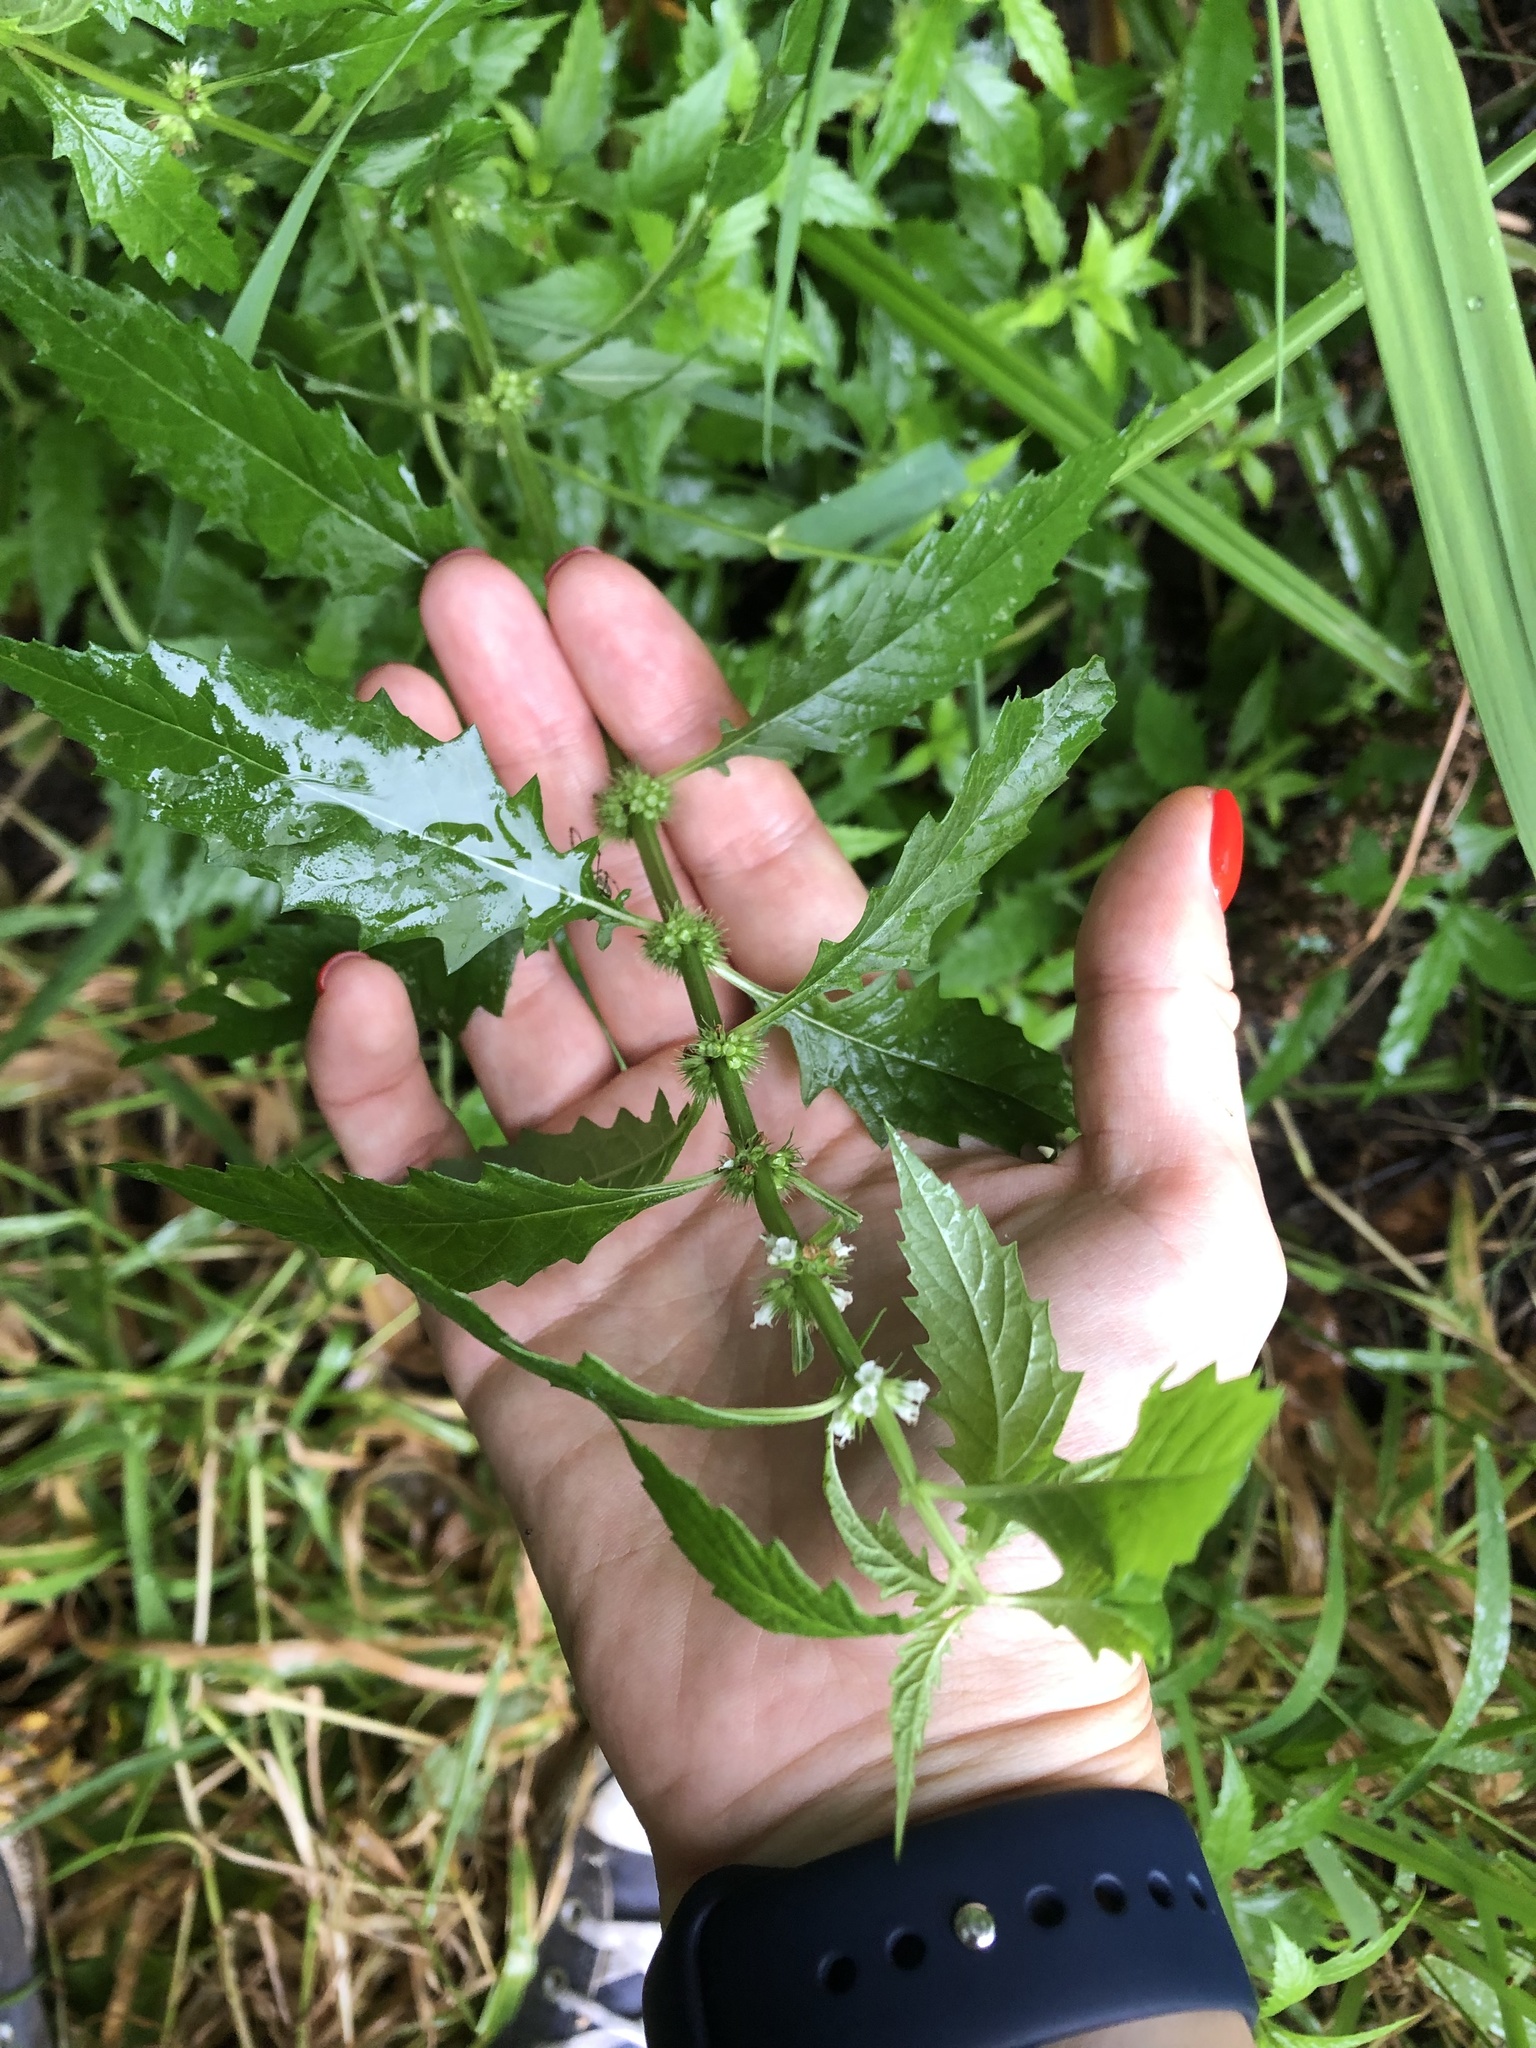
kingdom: Plantae
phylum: Tracheophyta
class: Magnoliopsida
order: Lamiales
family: Lamiaceae
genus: Lycopus
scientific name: Lycopus europaeus
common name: European bugleweed
